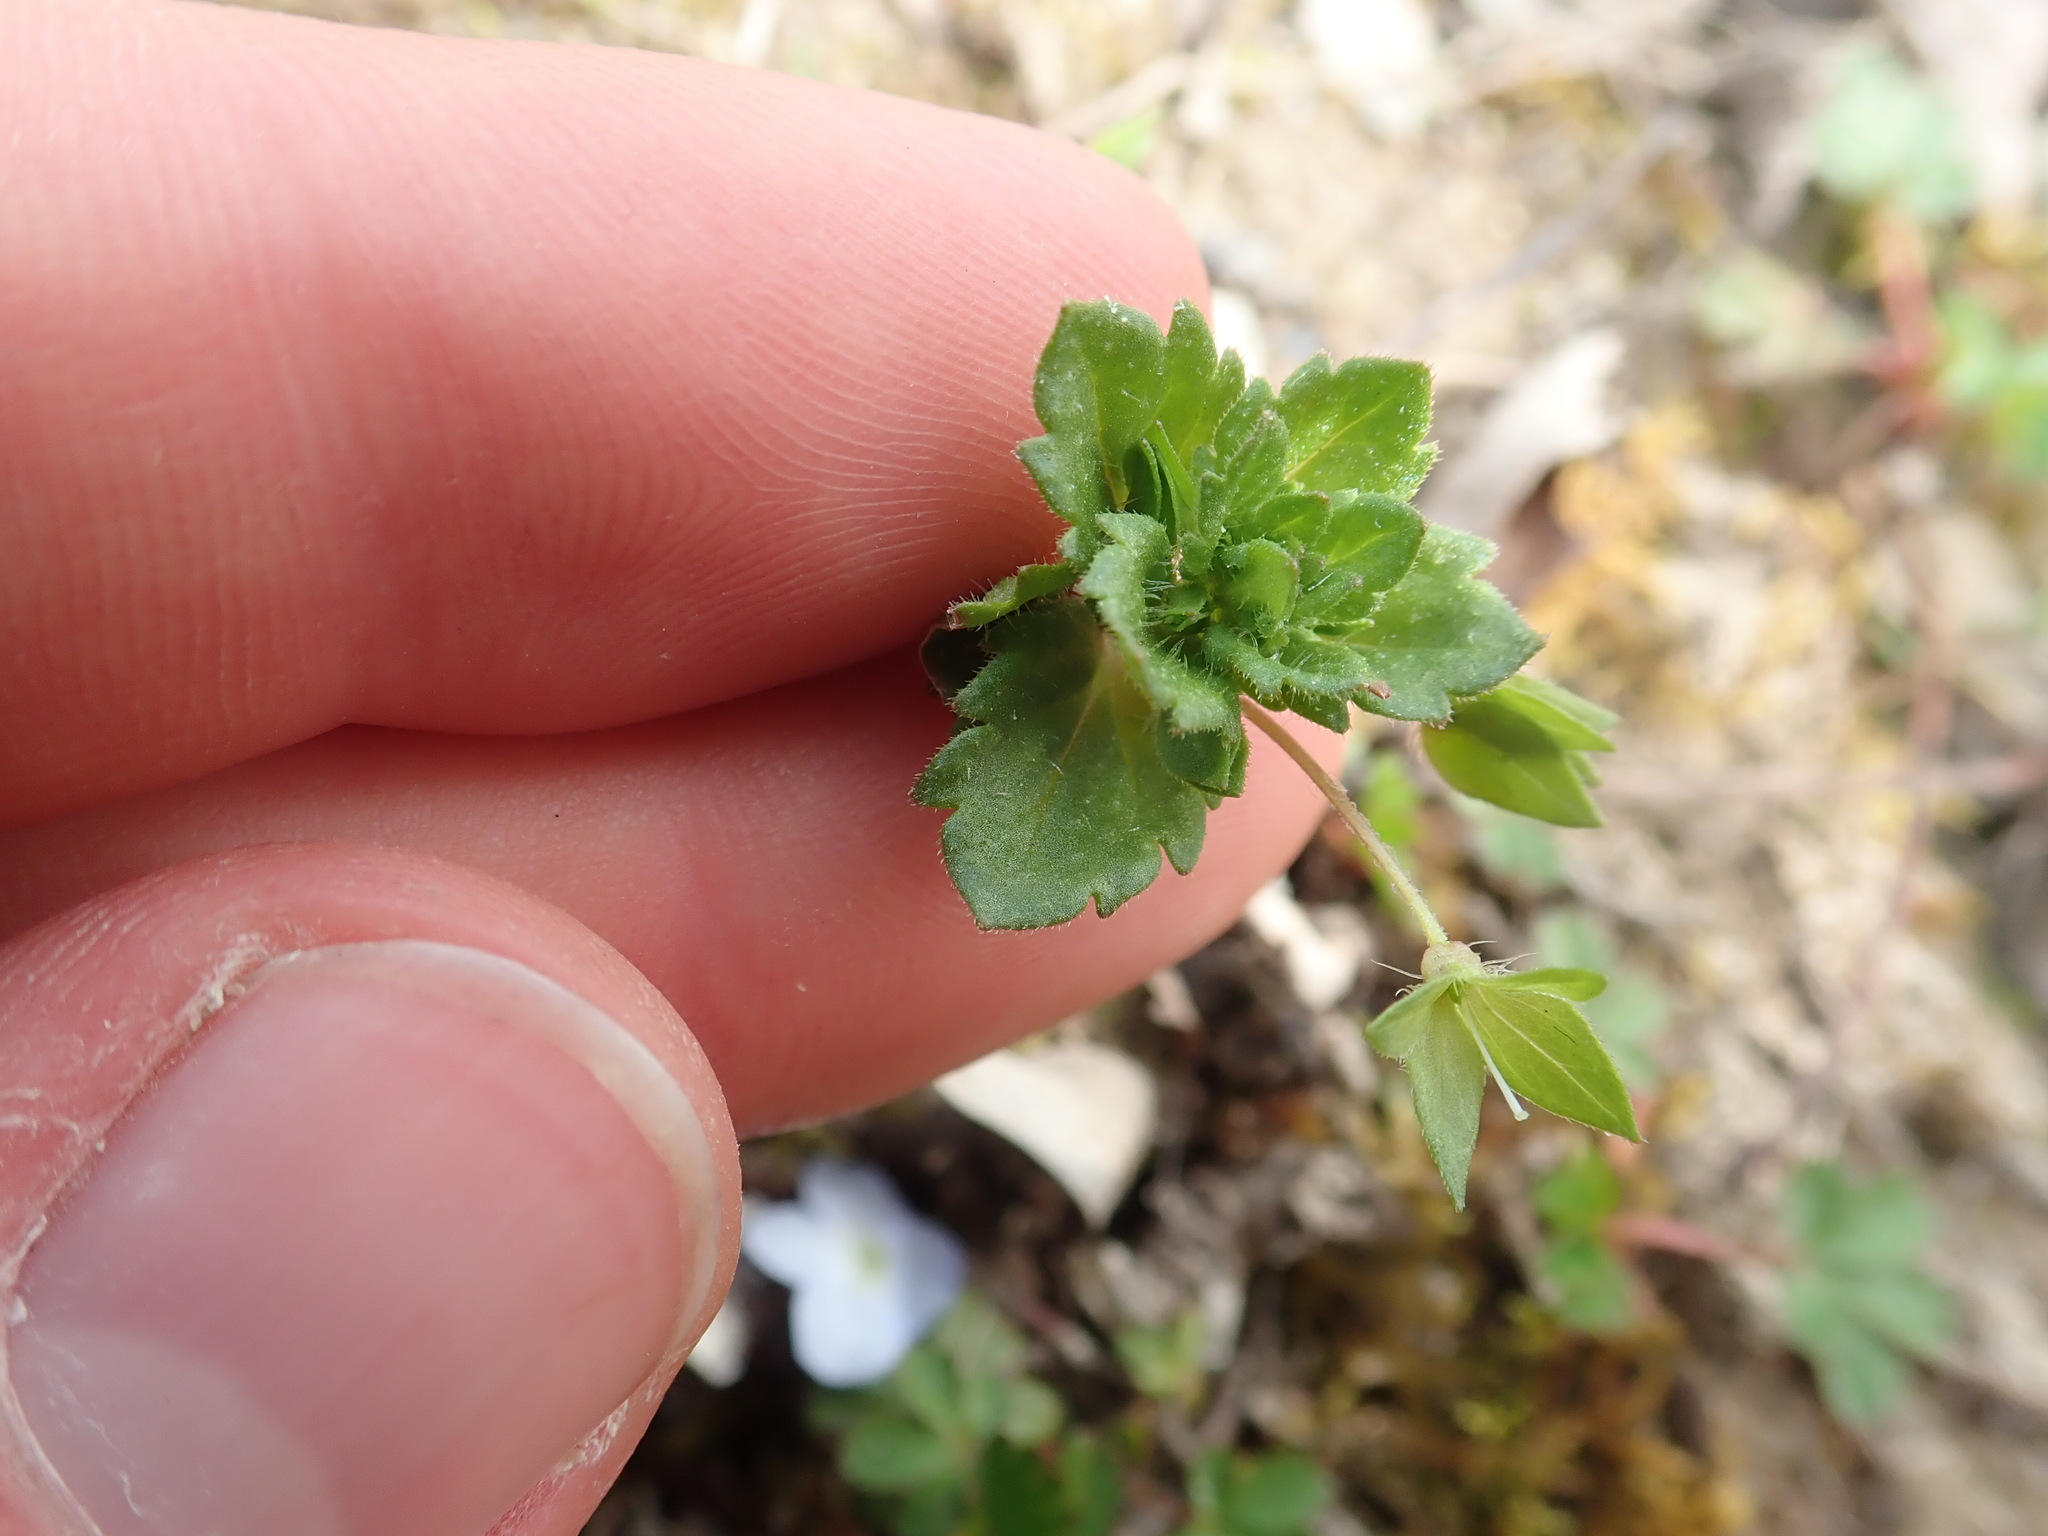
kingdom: Plantae
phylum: Tracheophyta
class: Magnoliopsida
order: Lamiales
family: Plantaginaceae
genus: Veronica
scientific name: Veronica persica
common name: Common field-speedwell
